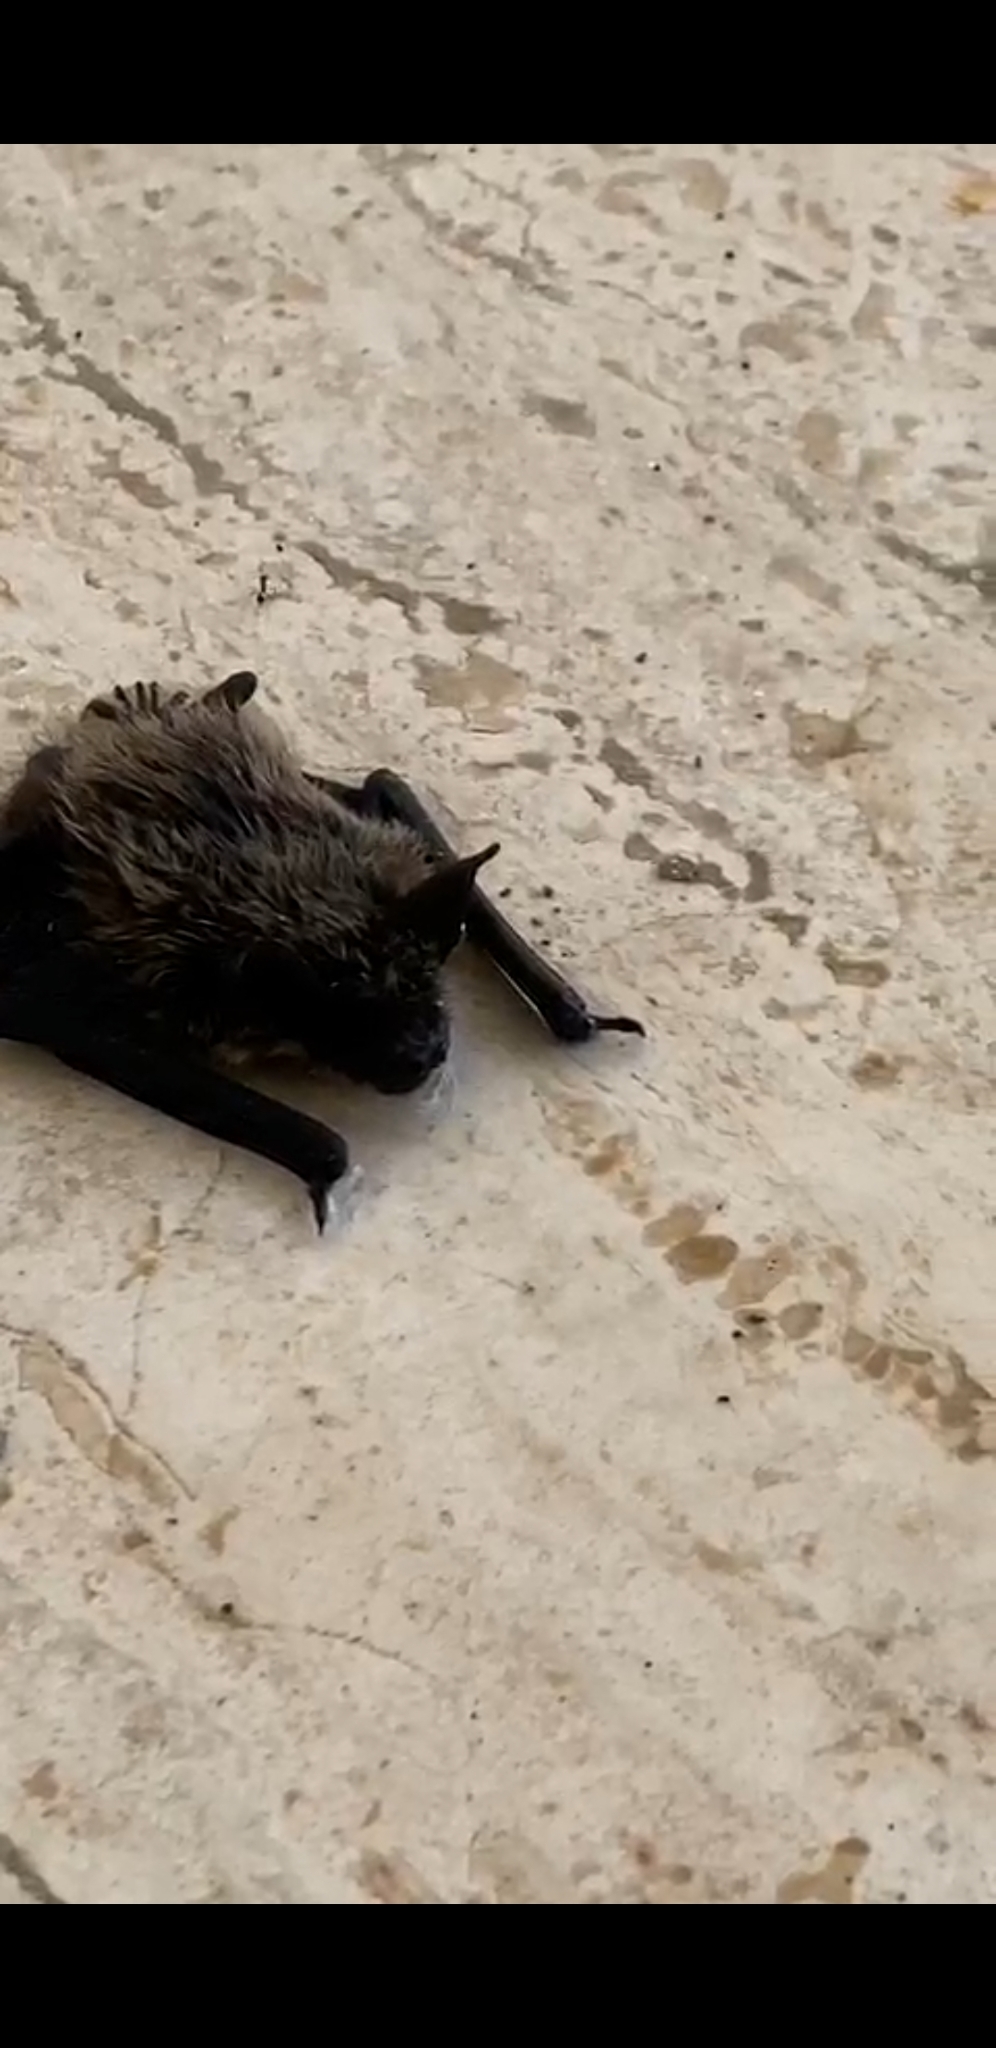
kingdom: Animalia
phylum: Chordata
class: Mammalia
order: Chiroptera
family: Vespertilionidae
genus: Hypsugo
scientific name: Hypsugo savii
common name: Savi's pipistrelle
